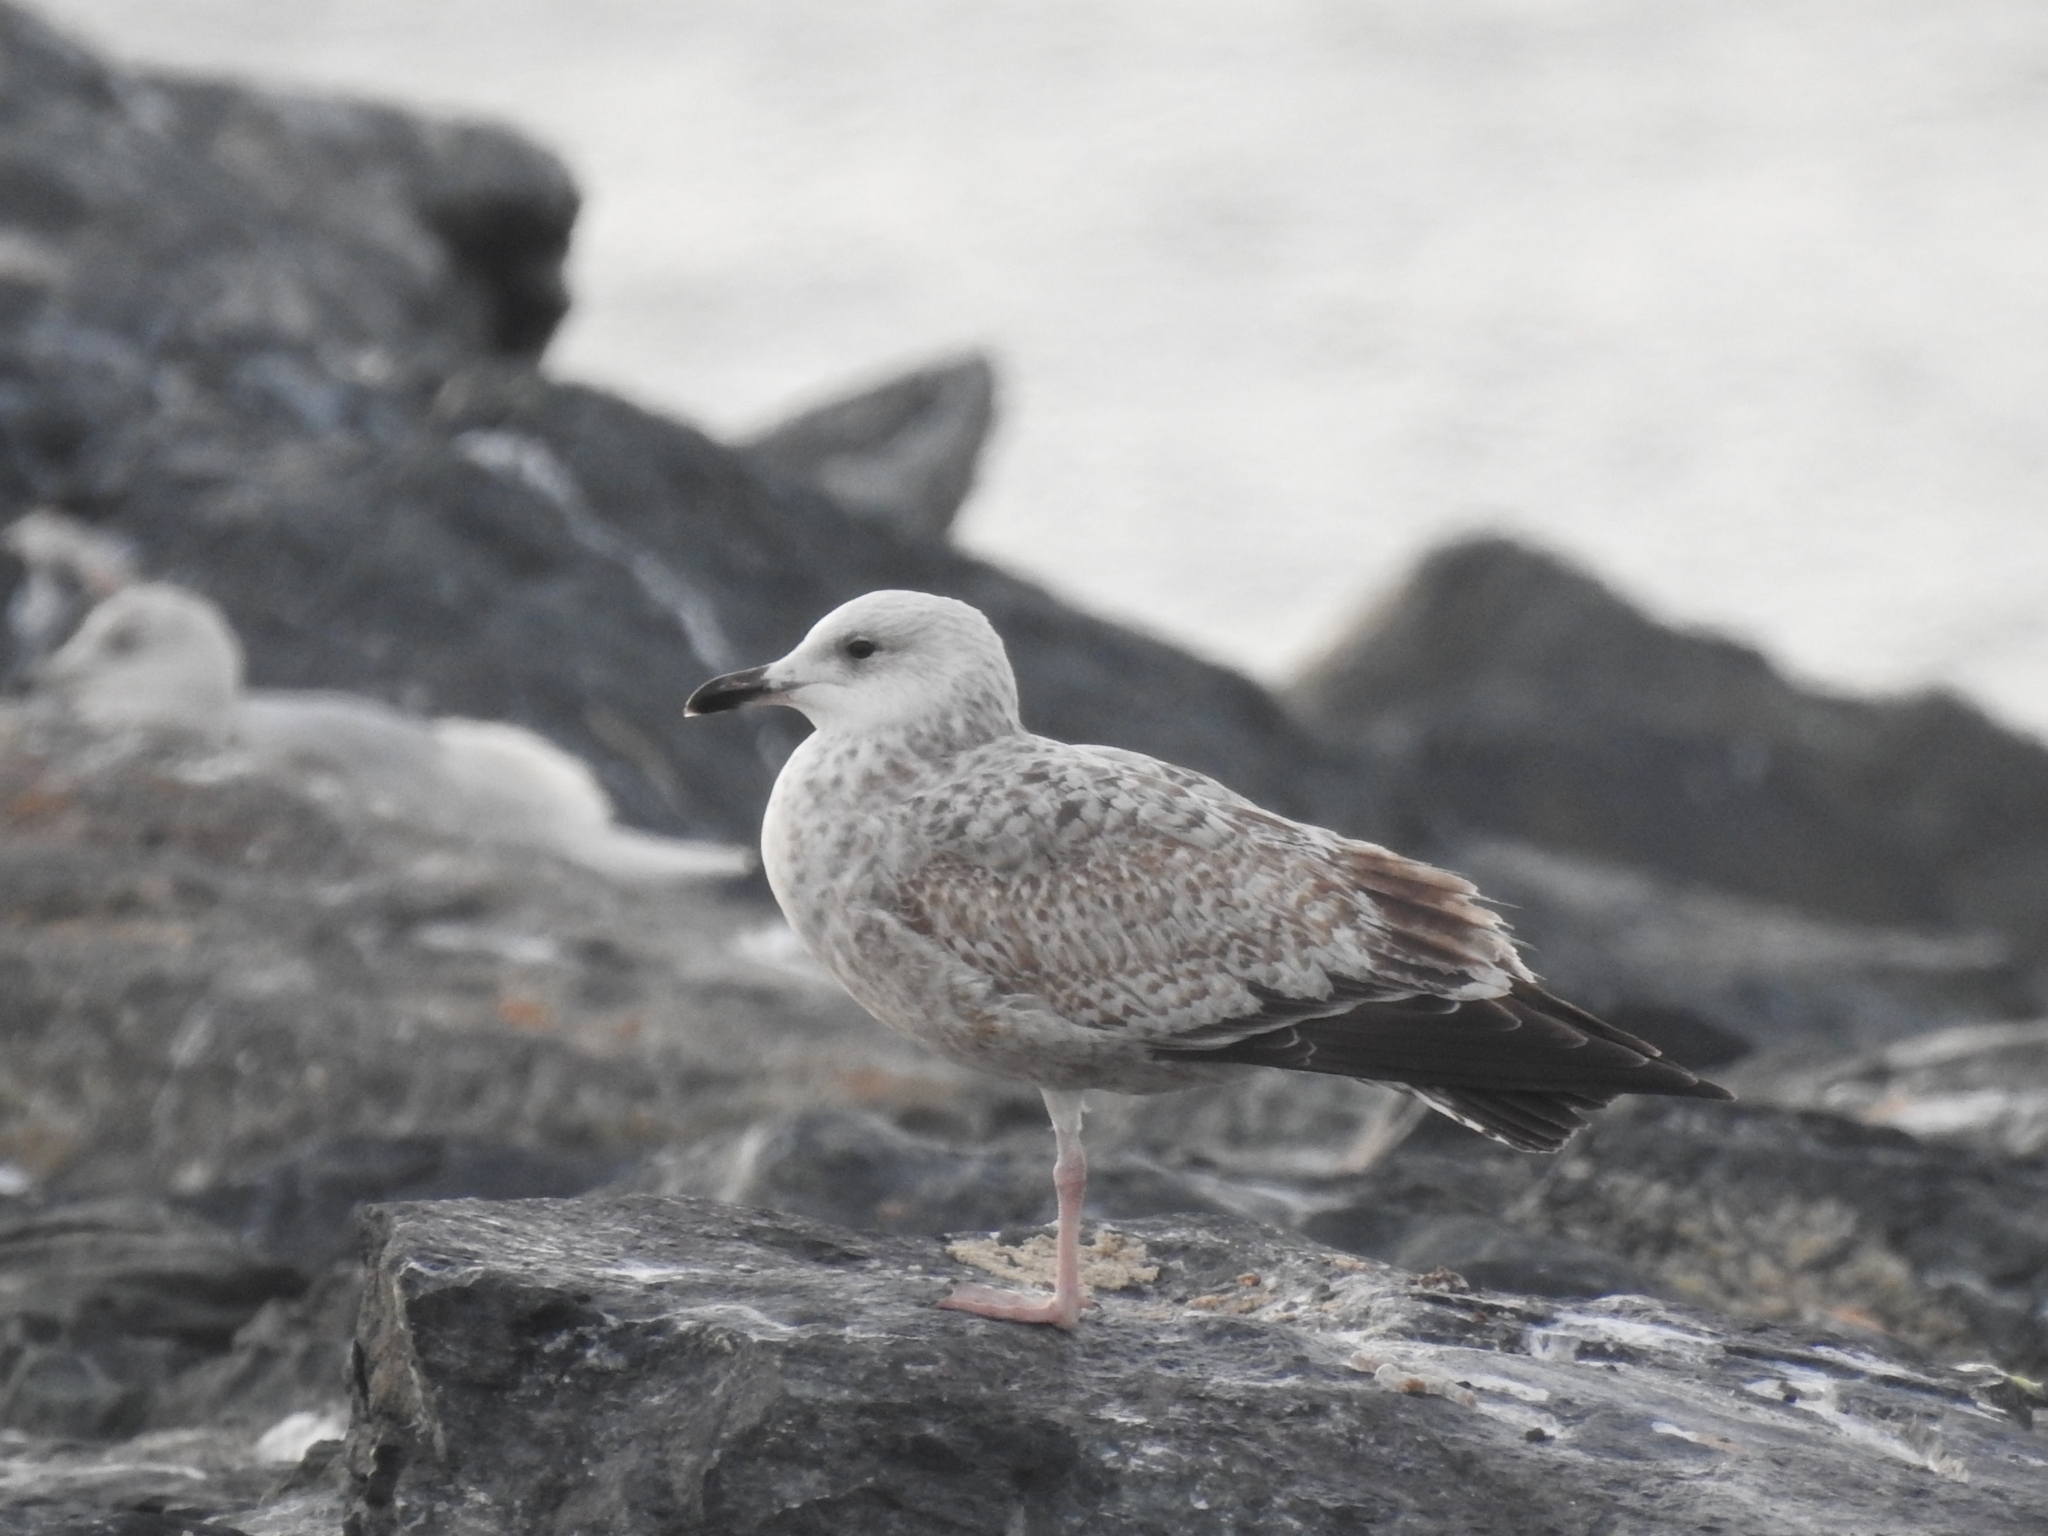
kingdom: Animalia
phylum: Chordata
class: Aves
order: Charadriiformes
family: Laridae
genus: Larus
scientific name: Larus argentatus
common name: Herring gull
